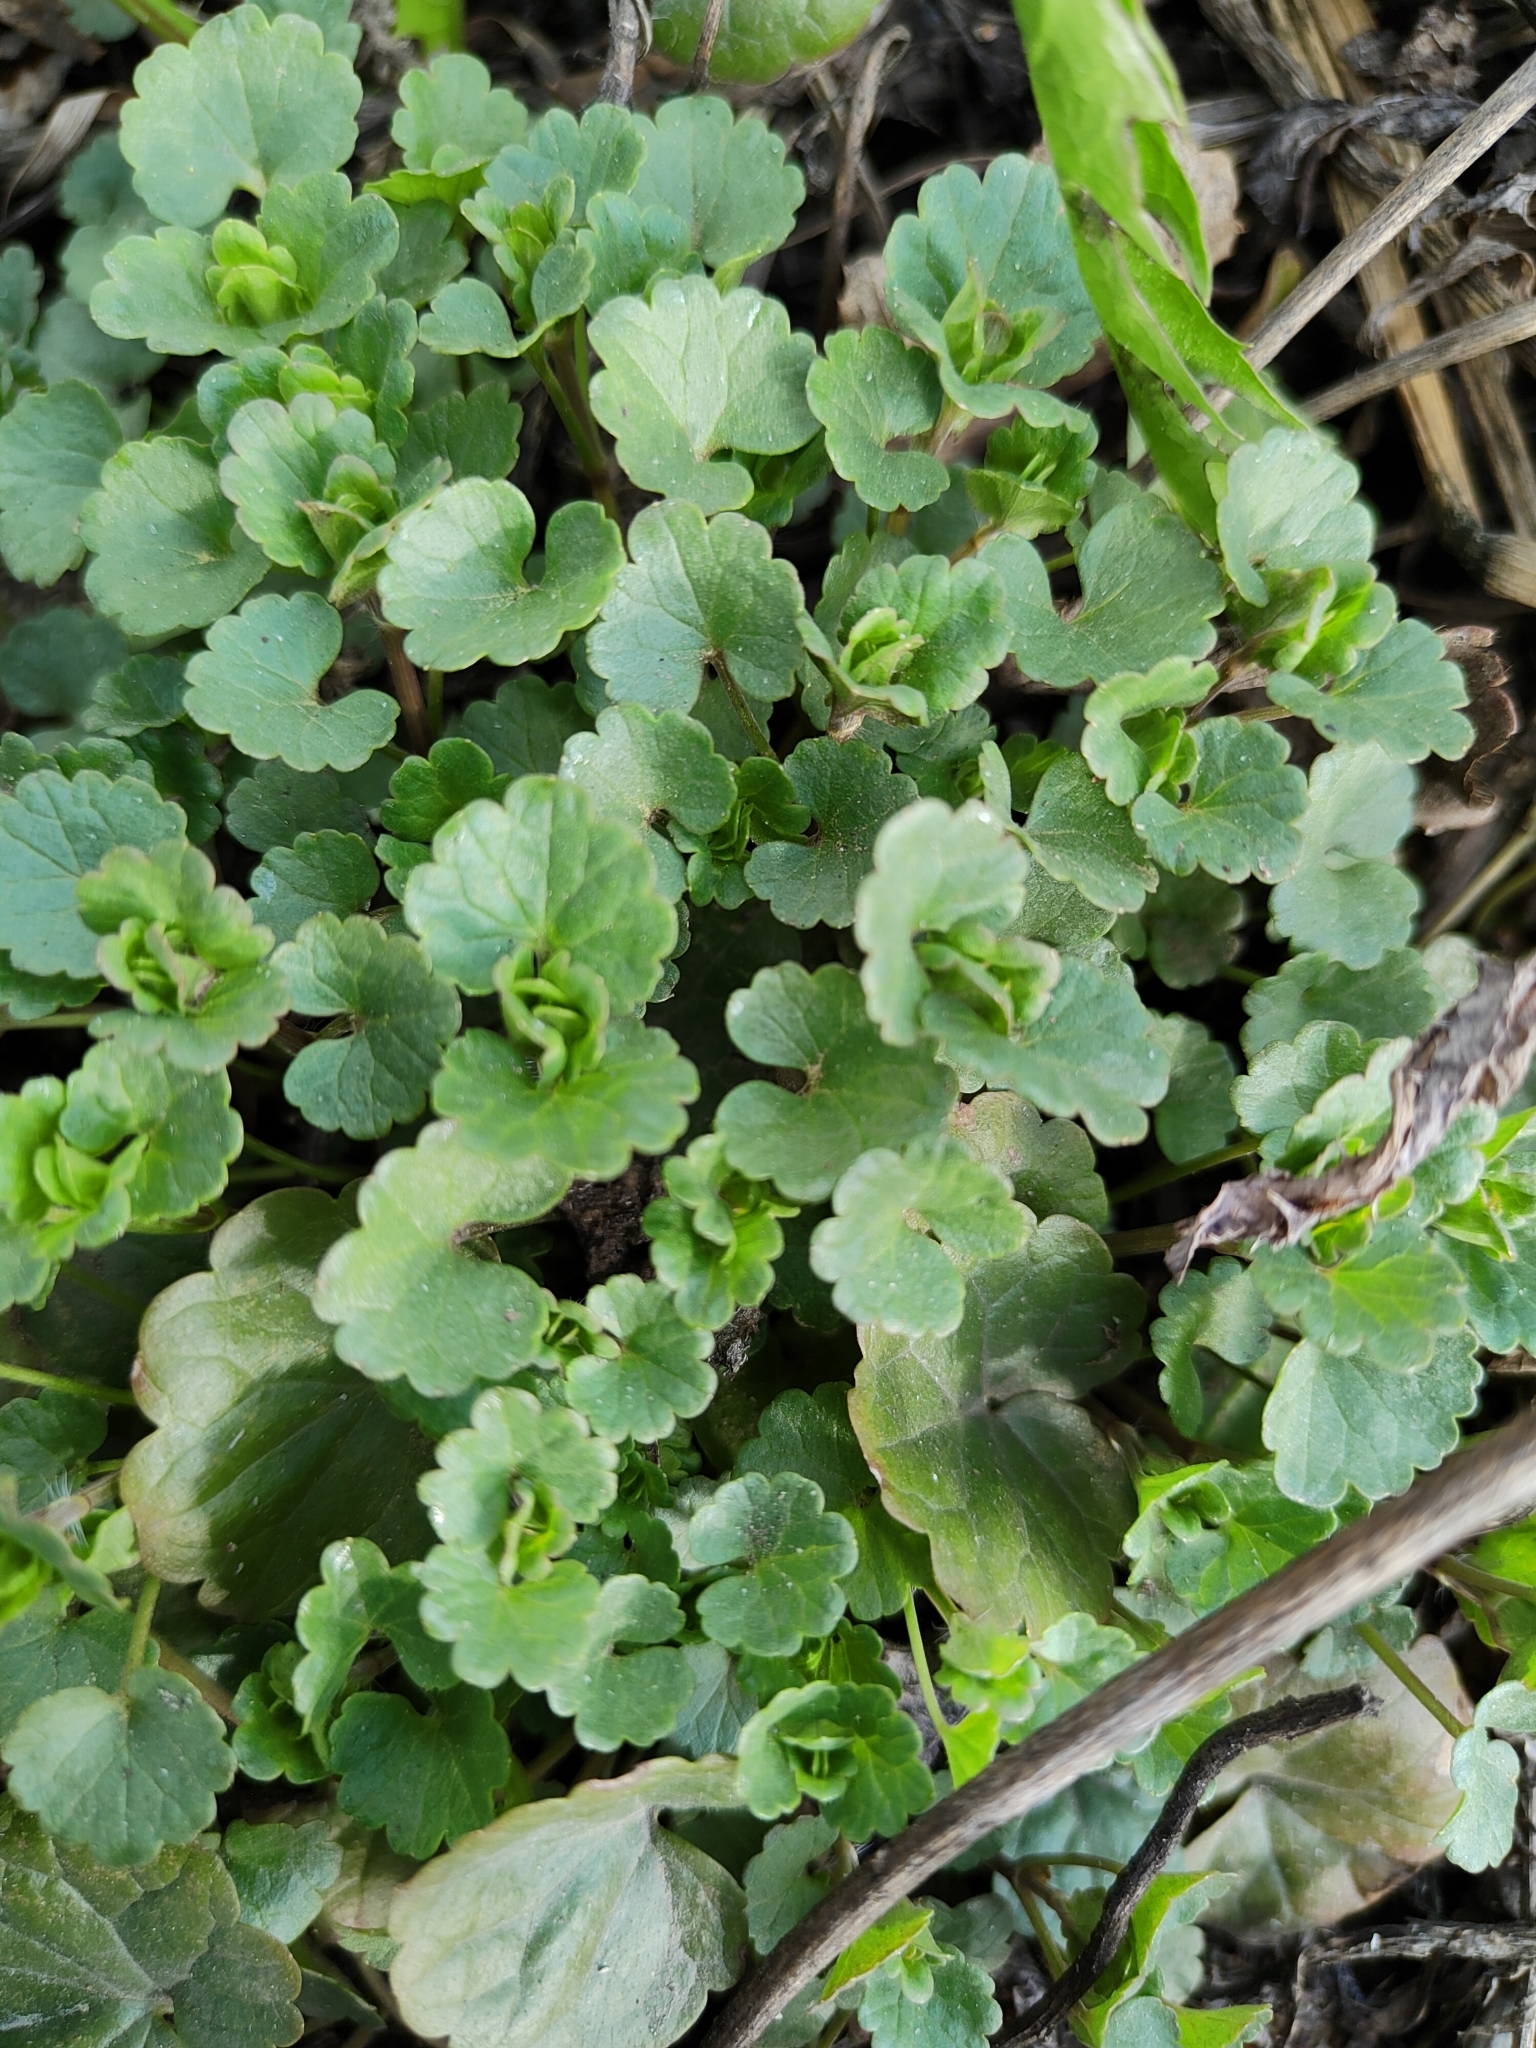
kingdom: Plantae
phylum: Tracheophyta
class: Magnoliopsida
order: Lamiales
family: Lamiaceae
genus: Glechoma
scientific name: Glechoma hederacea
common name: Ground ivy
